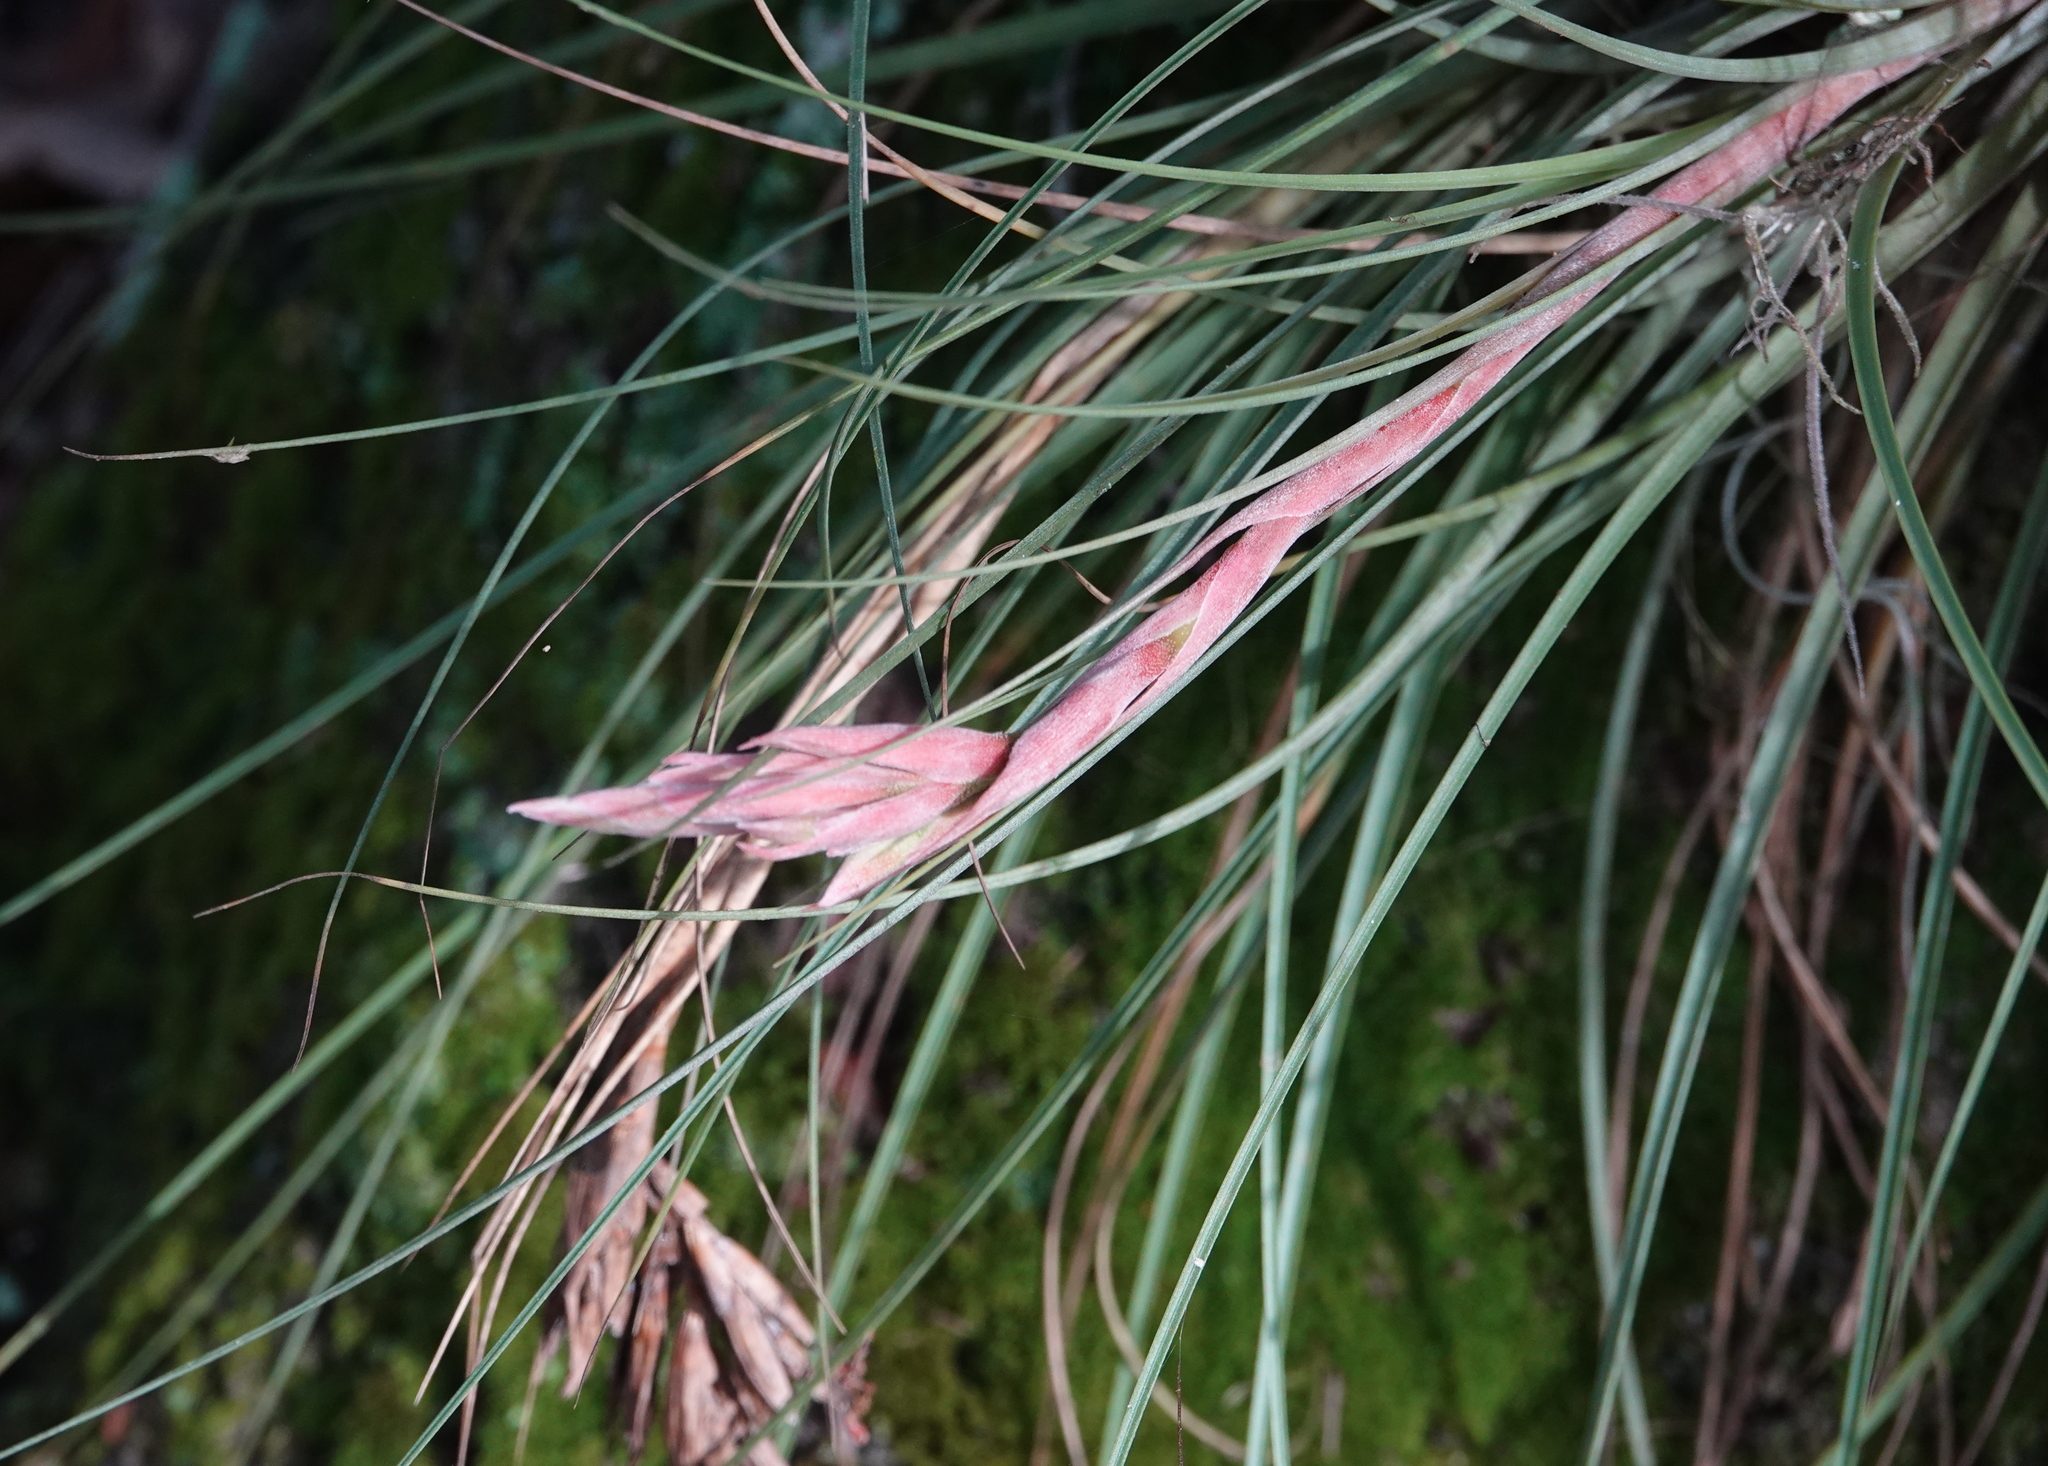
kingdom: Plantae
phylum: Tracheophyta
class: Liliopsida
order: Poales
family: Bromeliaceae
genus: Tillandsia
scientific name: Tillandsia bartramii
